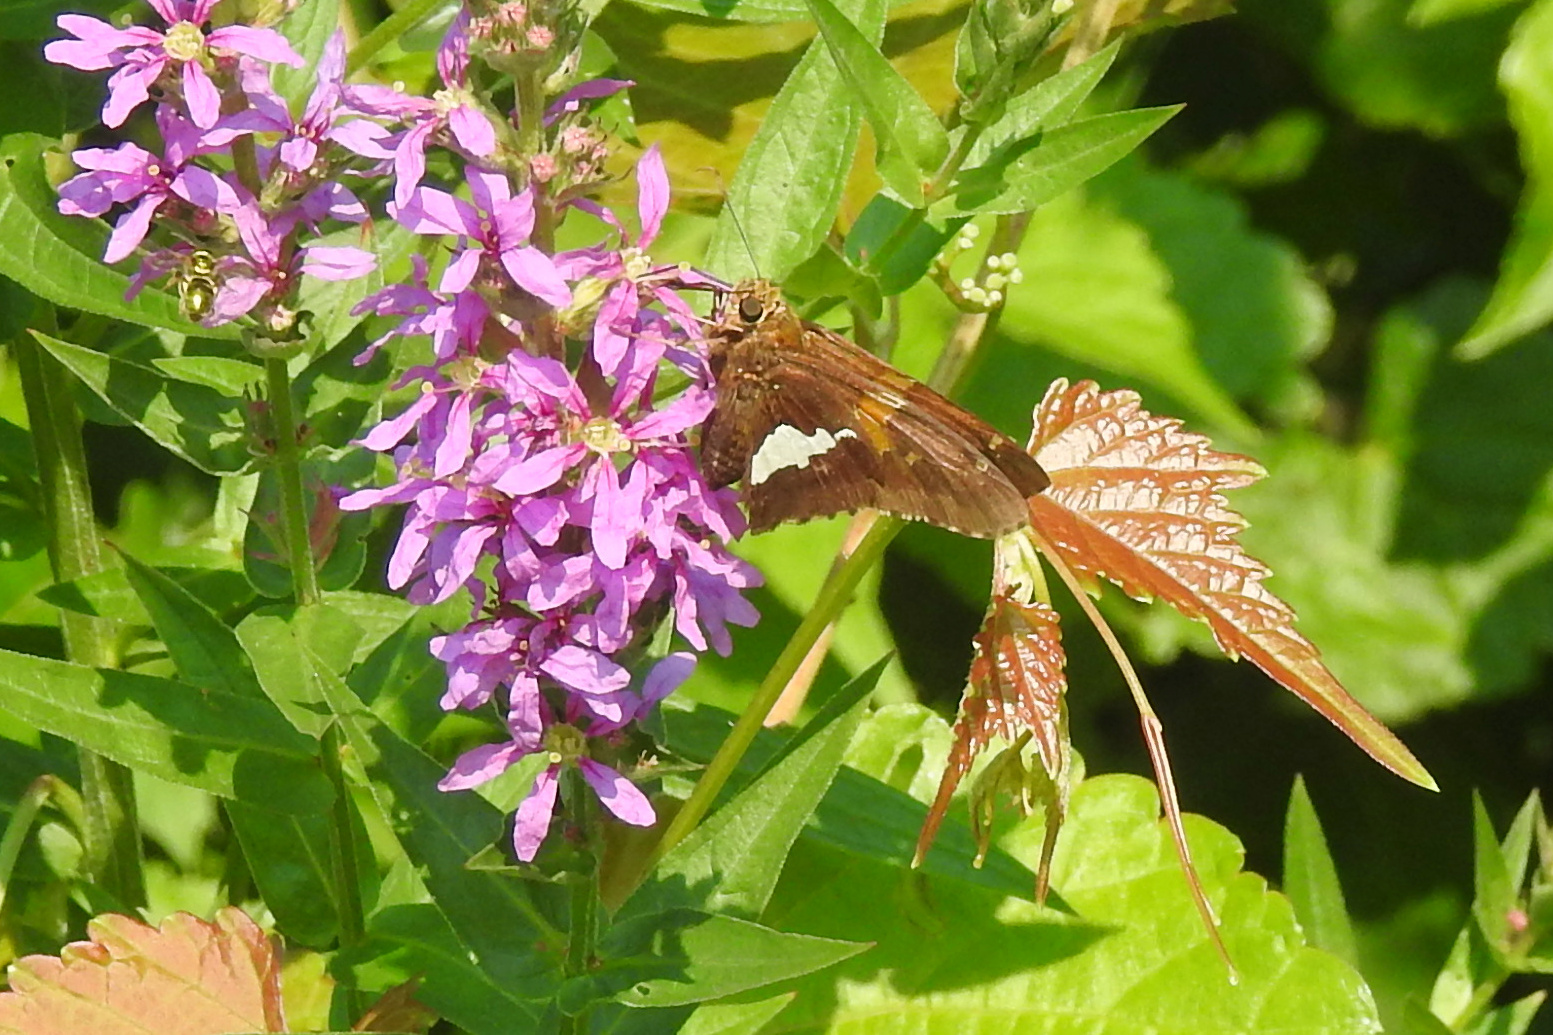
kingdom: Animalia
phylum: Arthropoda
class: Insecta
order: Lepidoptera
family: Hesperiidae
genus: Epargyreus
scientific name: Epargyreus clarus
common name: Silver-spotted skipper
